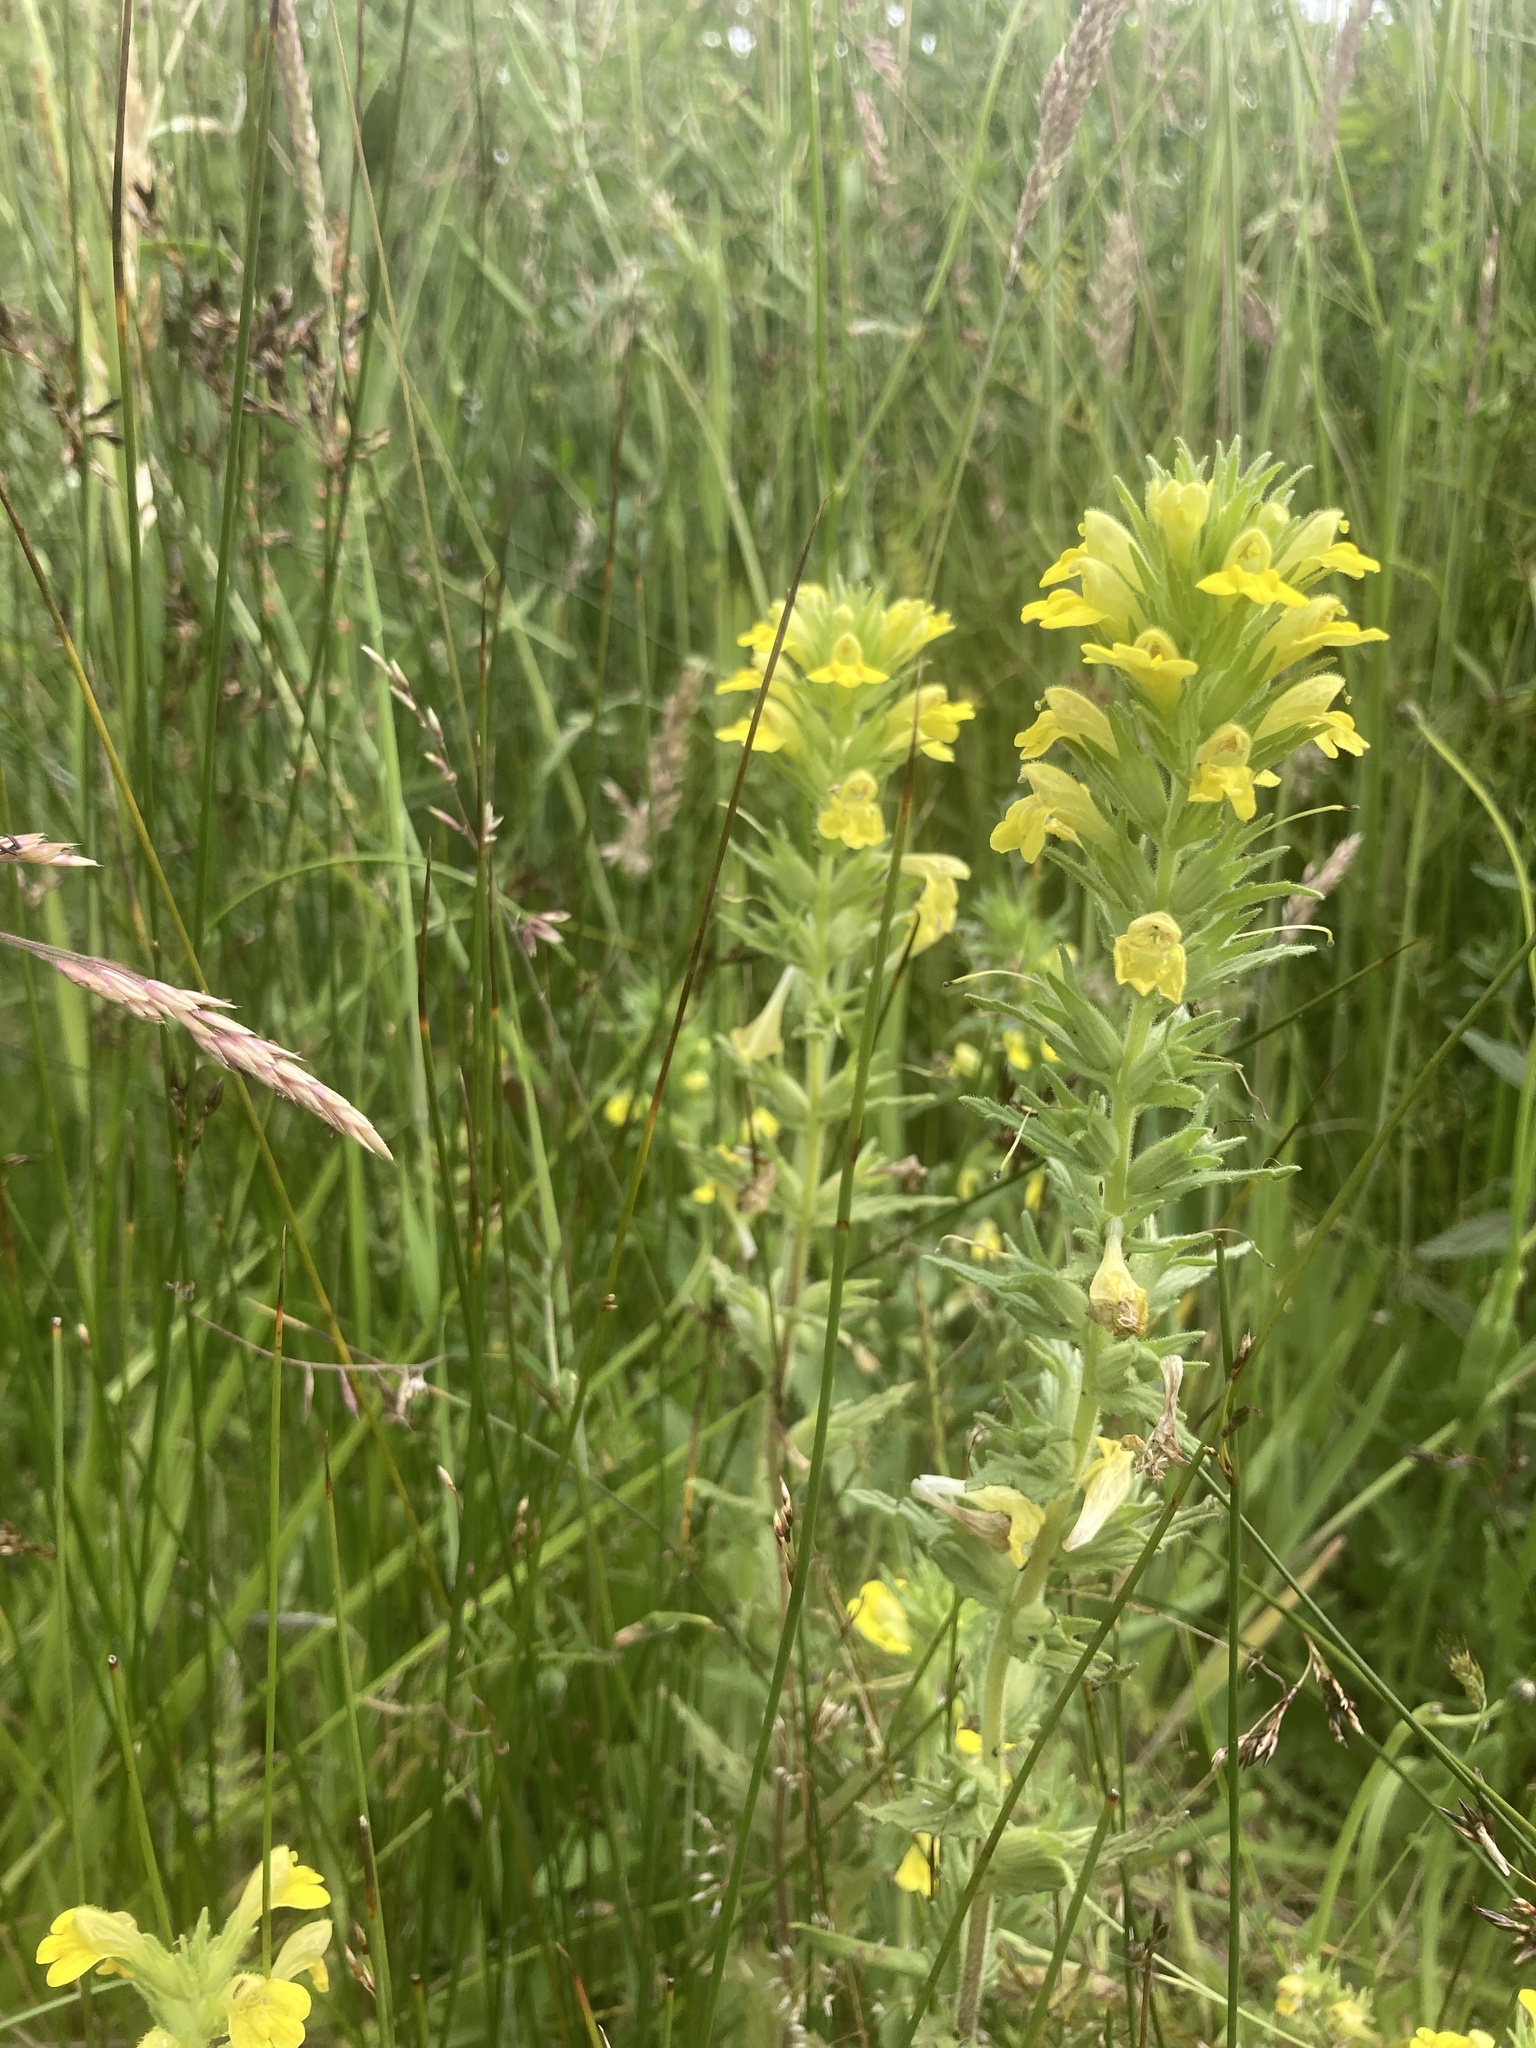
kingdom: Plantae
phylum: Tracheophyta
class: Magnoliopsida
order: Lamiales
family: Orobanchaceae
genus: Bellardia
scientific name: Bellardia viscosa
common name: Sticky parentucellia
